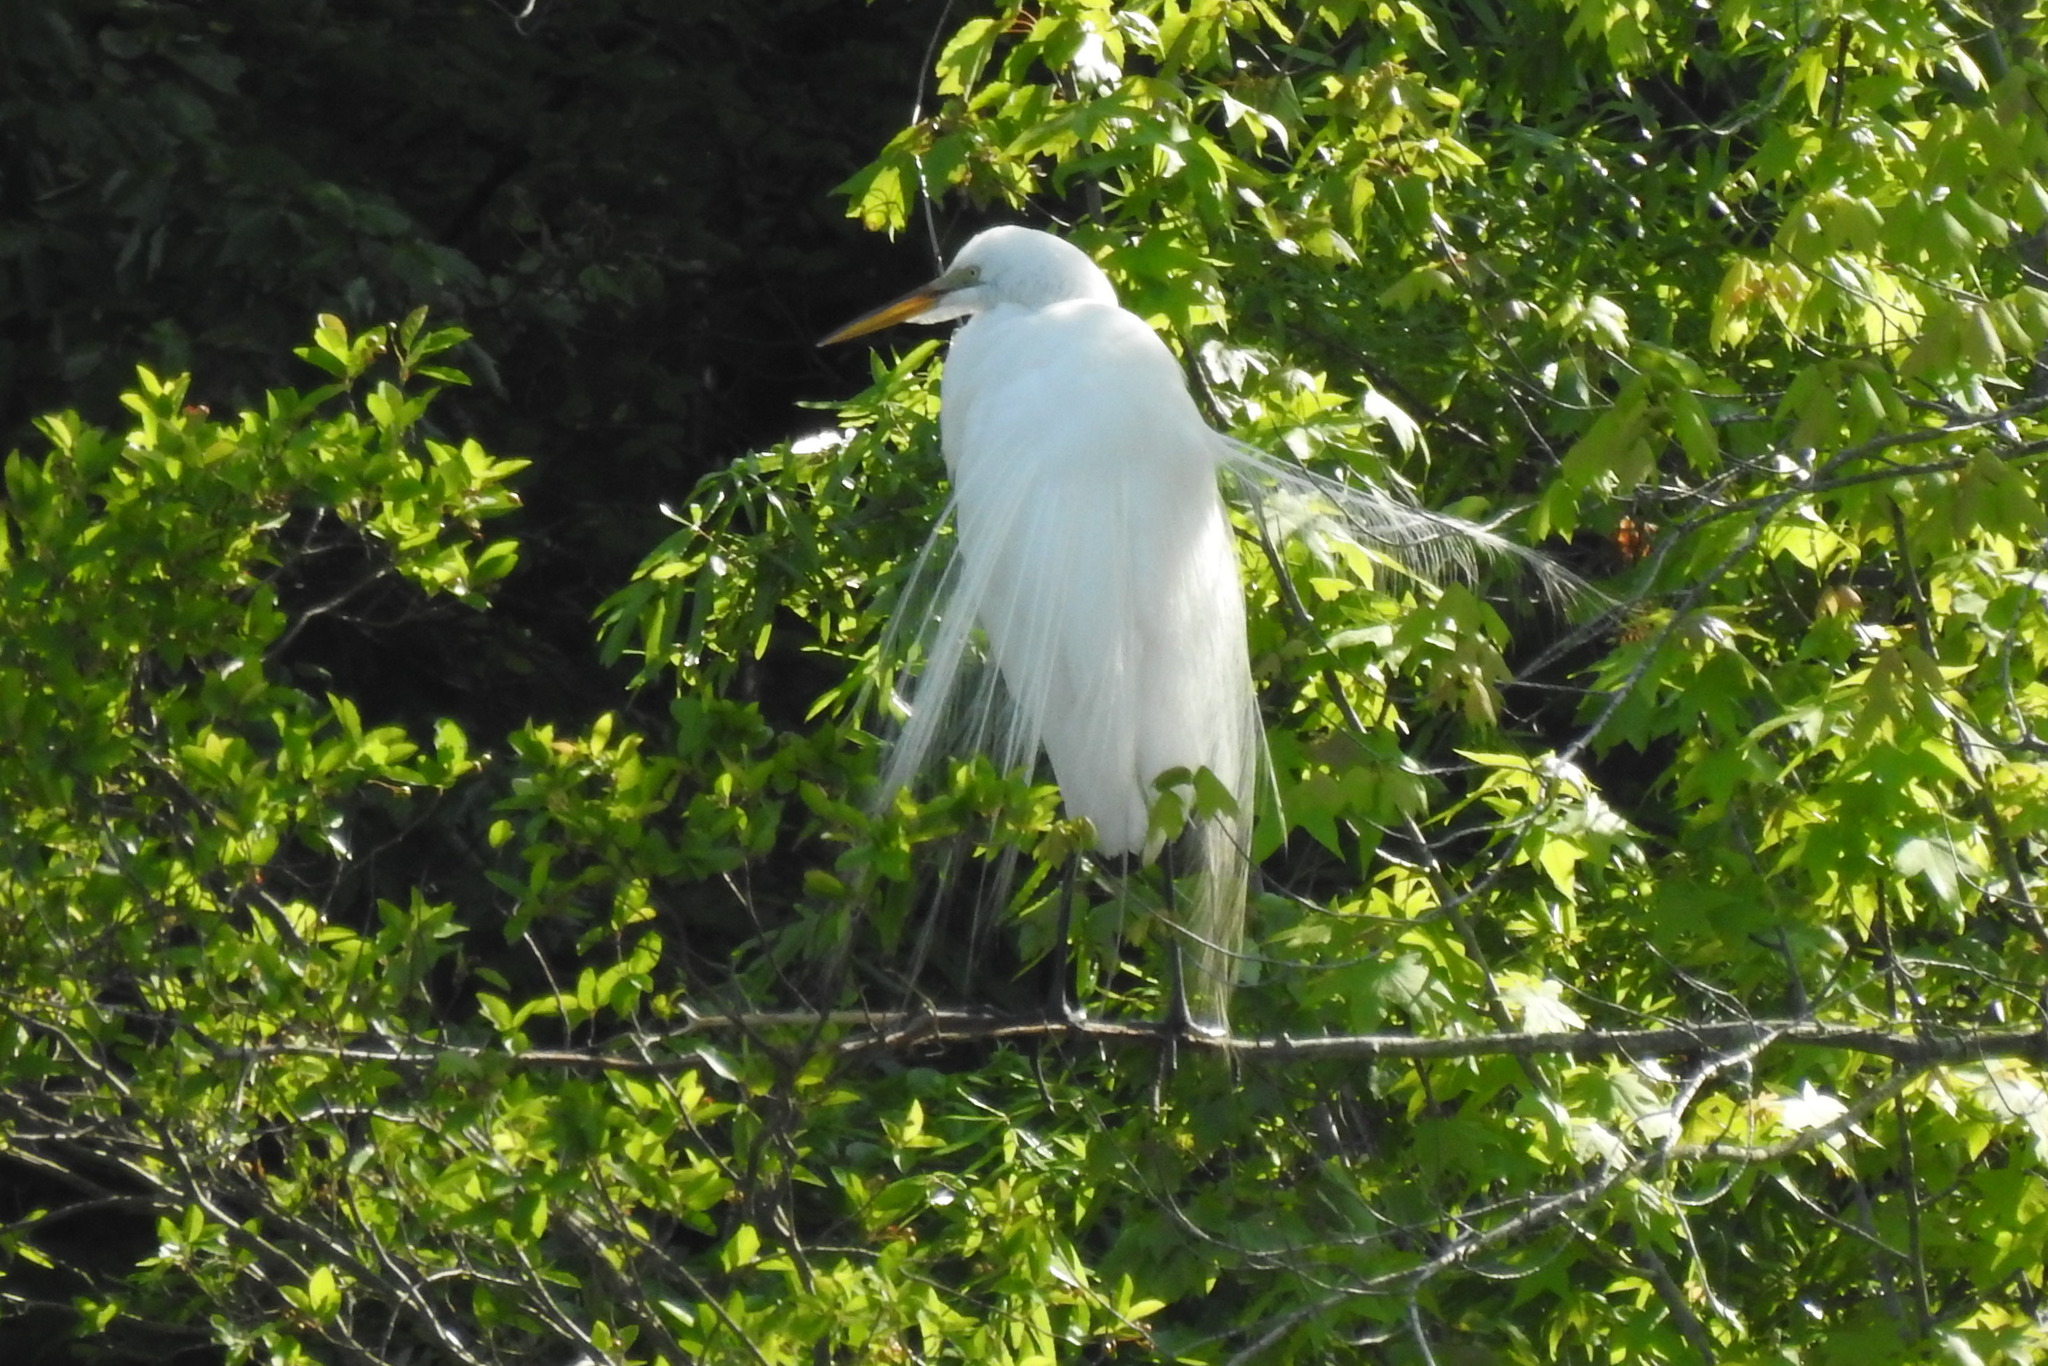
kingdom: Animalia
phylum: Chordata
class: Aves
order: Pelecaniformes
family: Ardeidae
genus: Ardea
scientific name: Ardea alba
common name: Great egret
